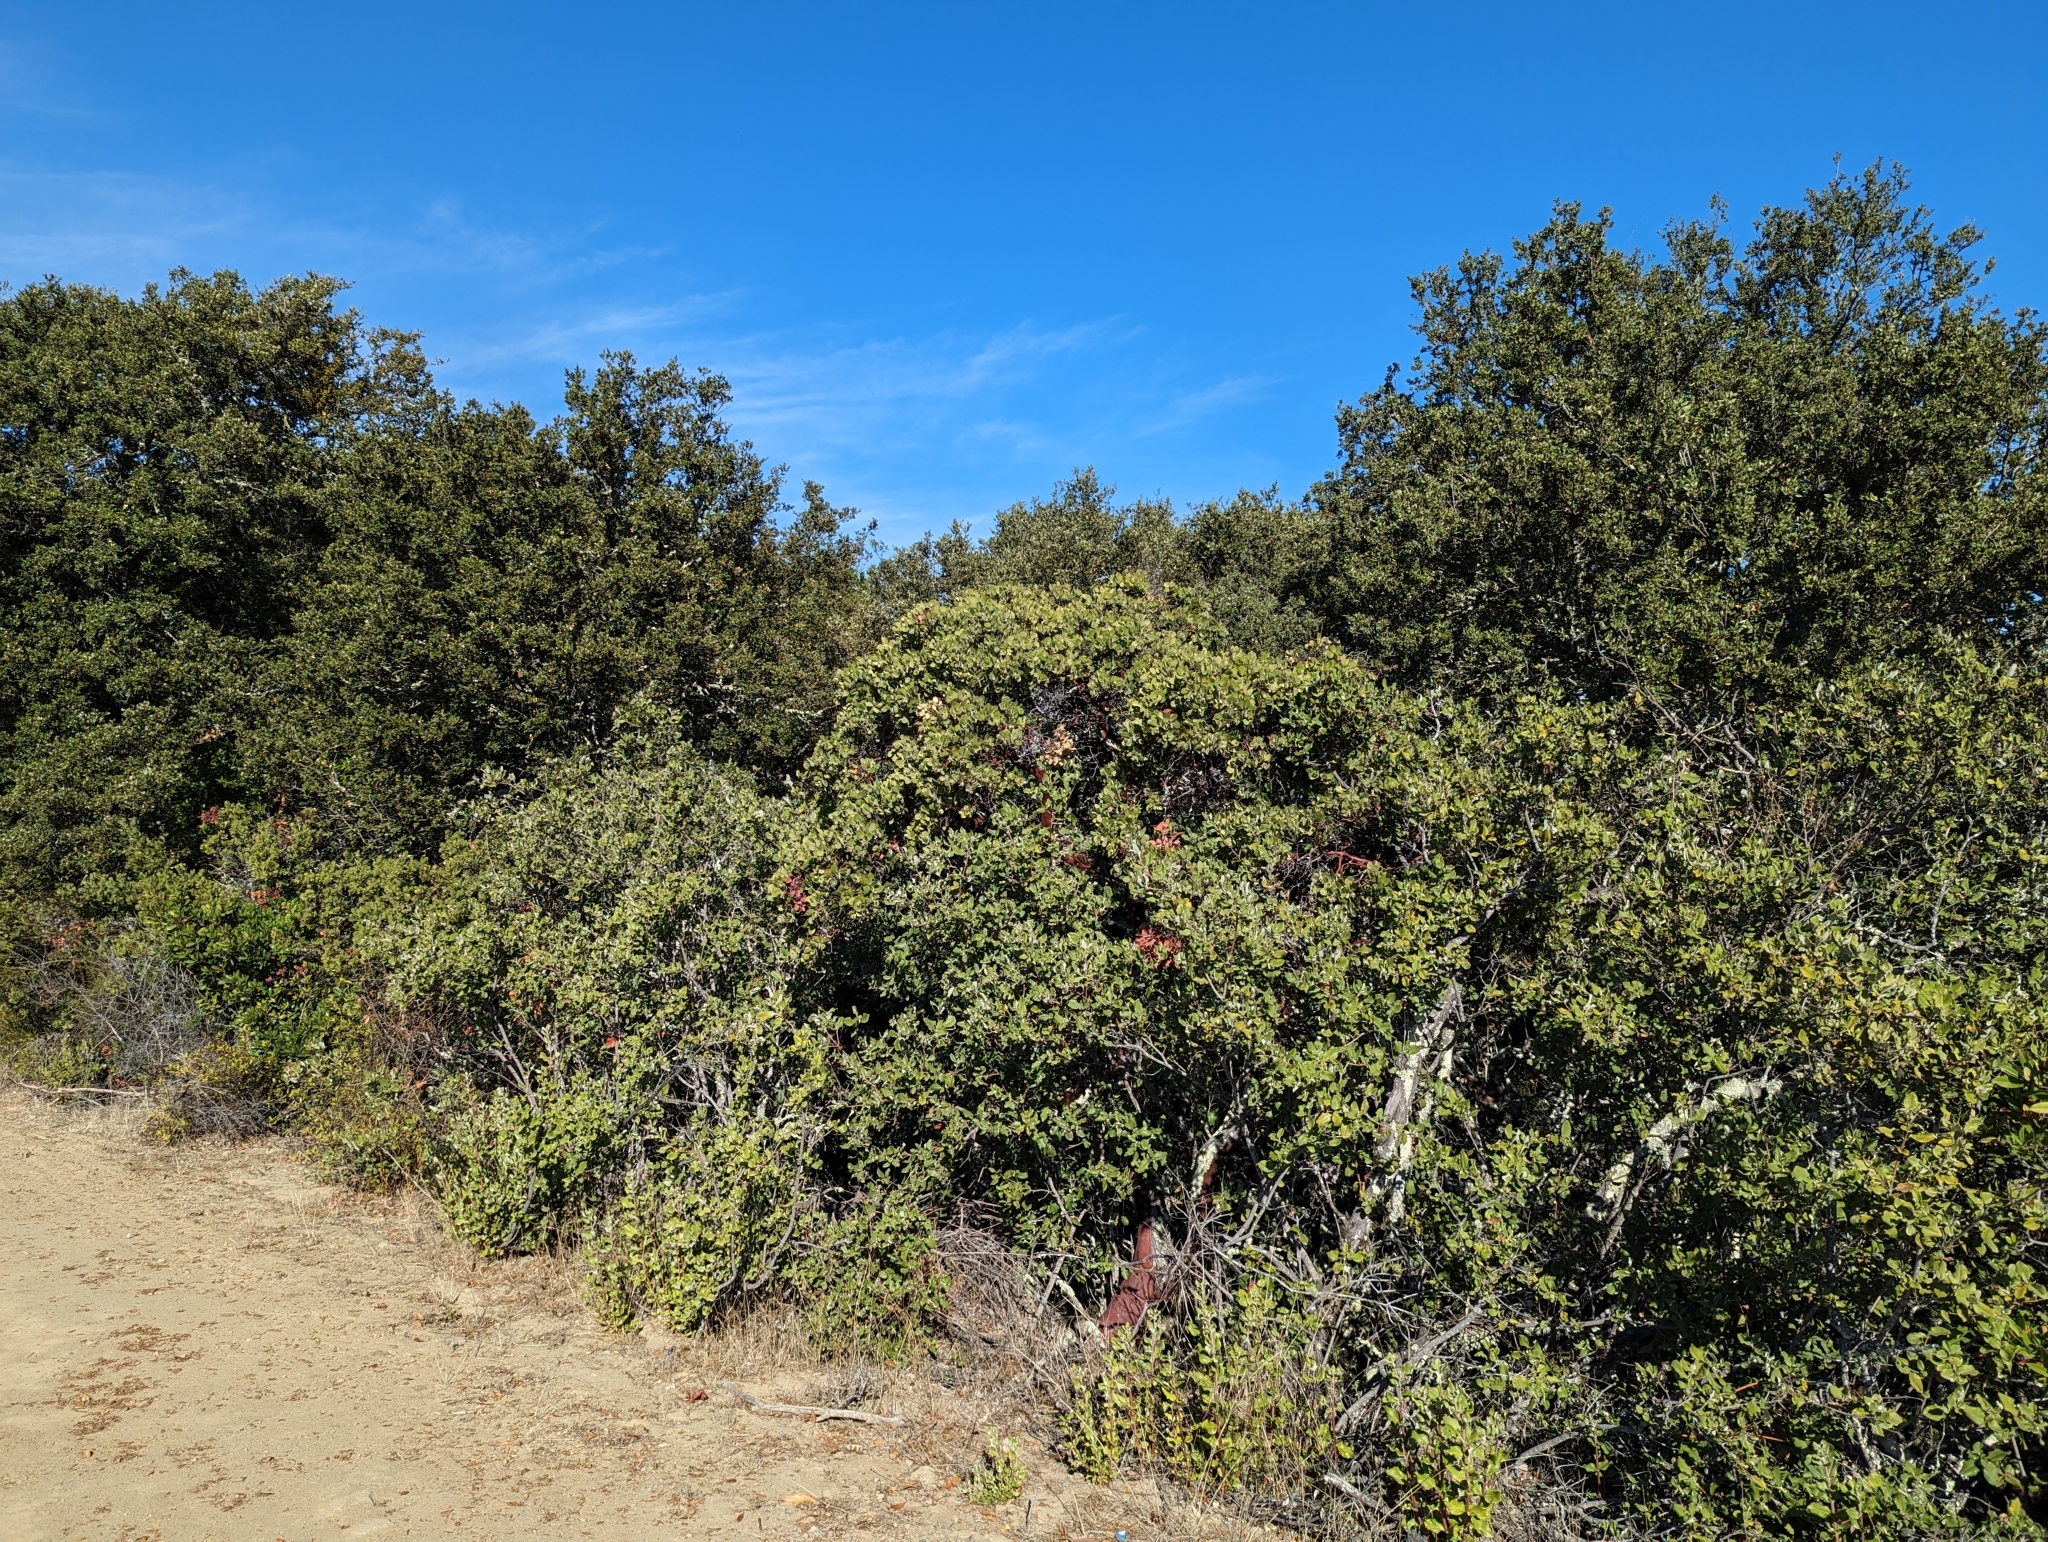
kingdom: Plantae
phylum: Tracheophyta
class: Magnoliopsida
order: Ericales
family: Ericaceae
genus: Arctostaphylos
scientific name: Arctostaphylos crustacea
